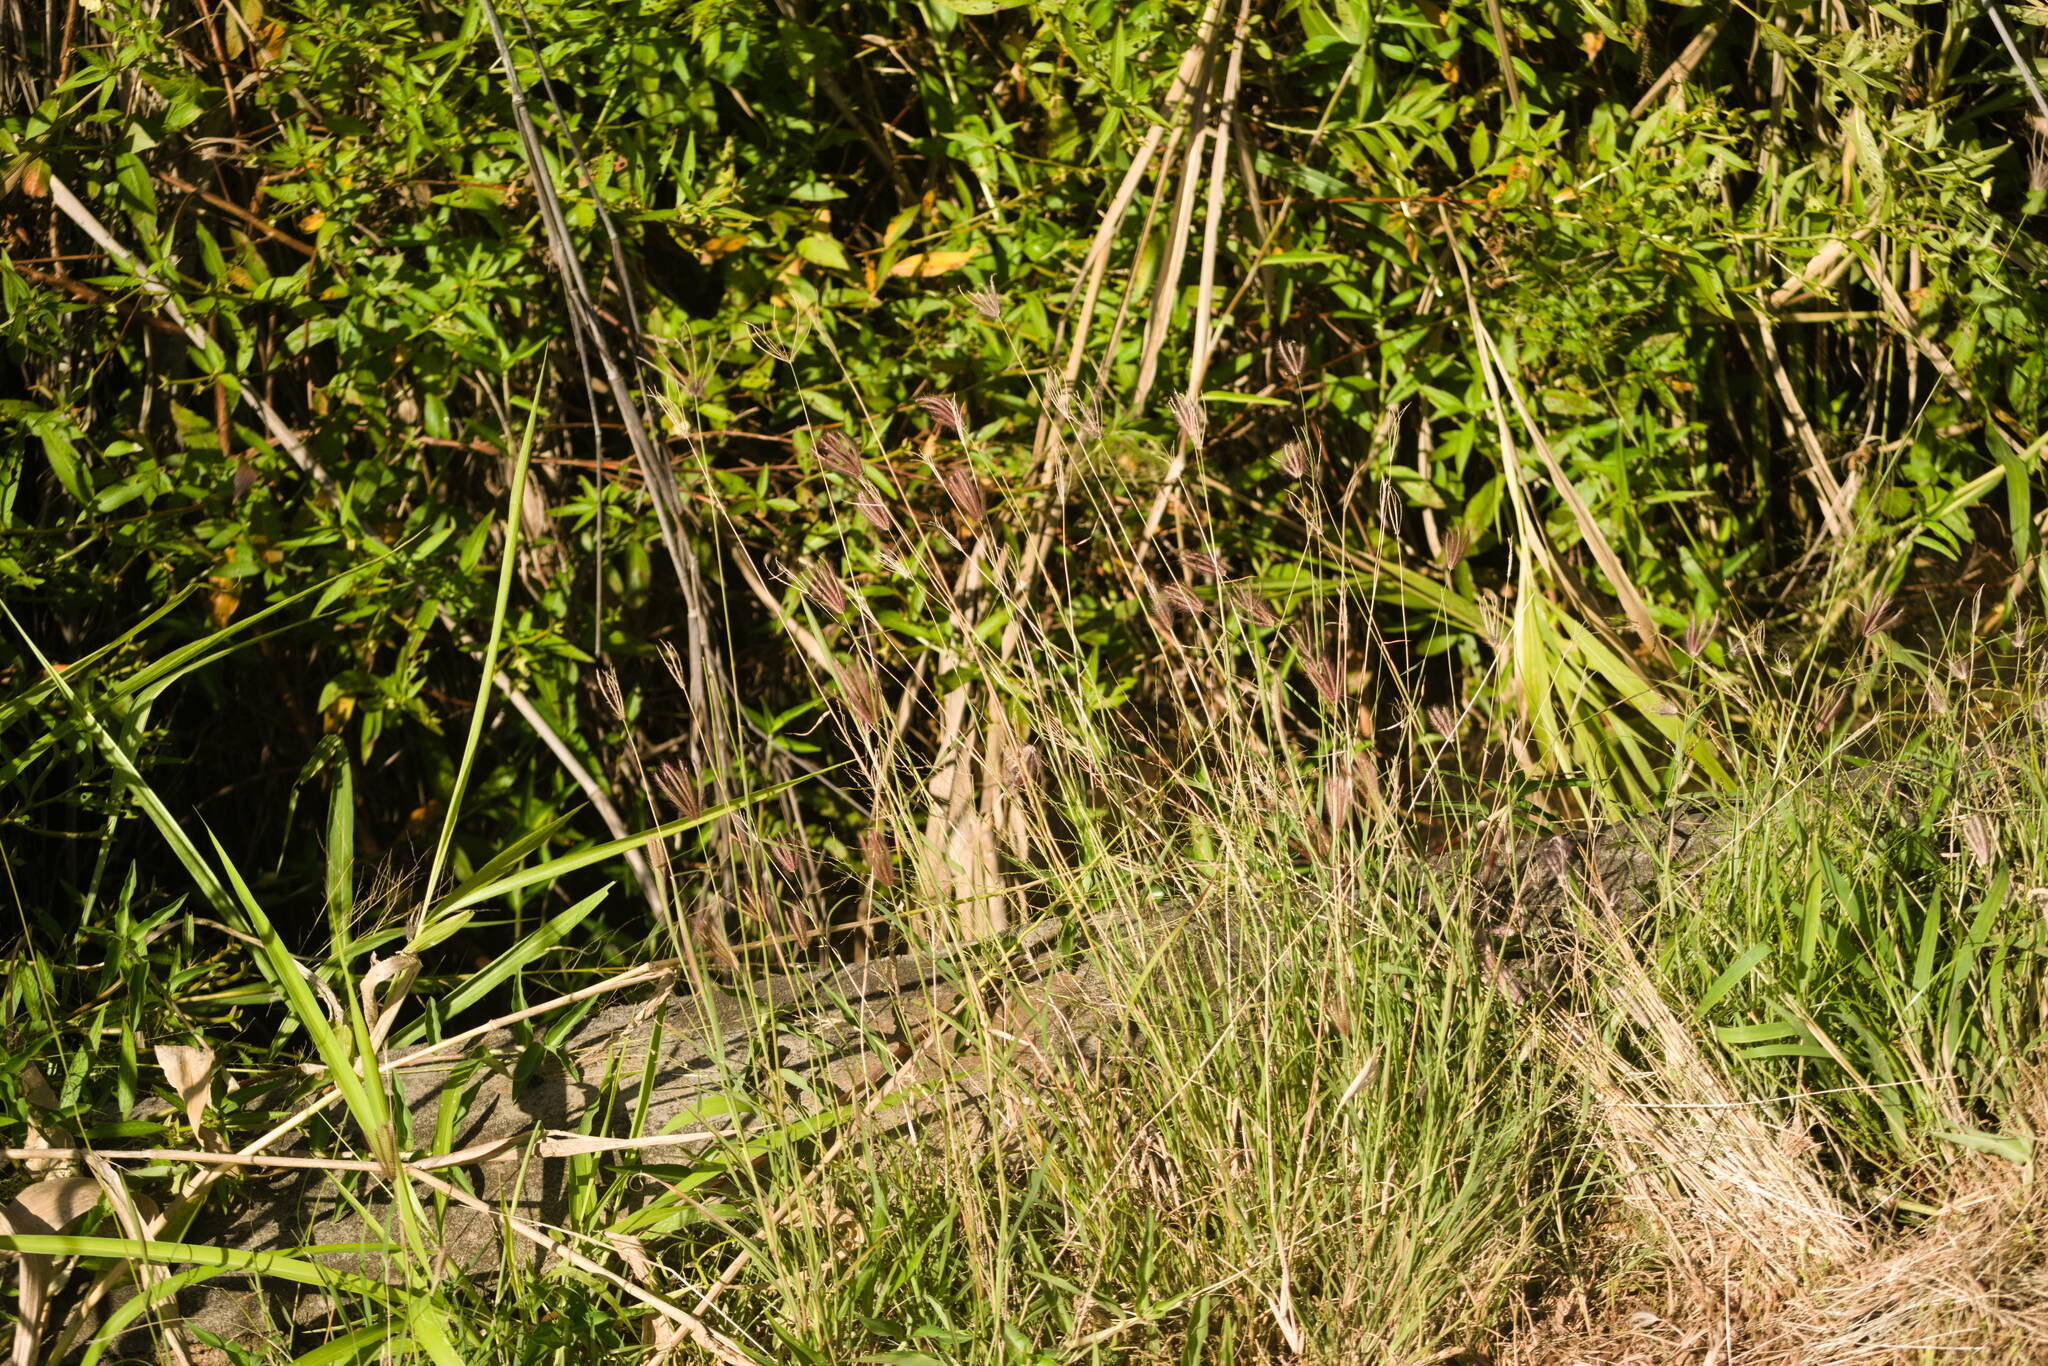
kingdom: Plantae
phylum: Tracheophyta
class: Liliopsida
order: Poales
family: Poaceae
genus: Chloris
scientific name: Chloris barbata
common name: Swollen fingergrass
